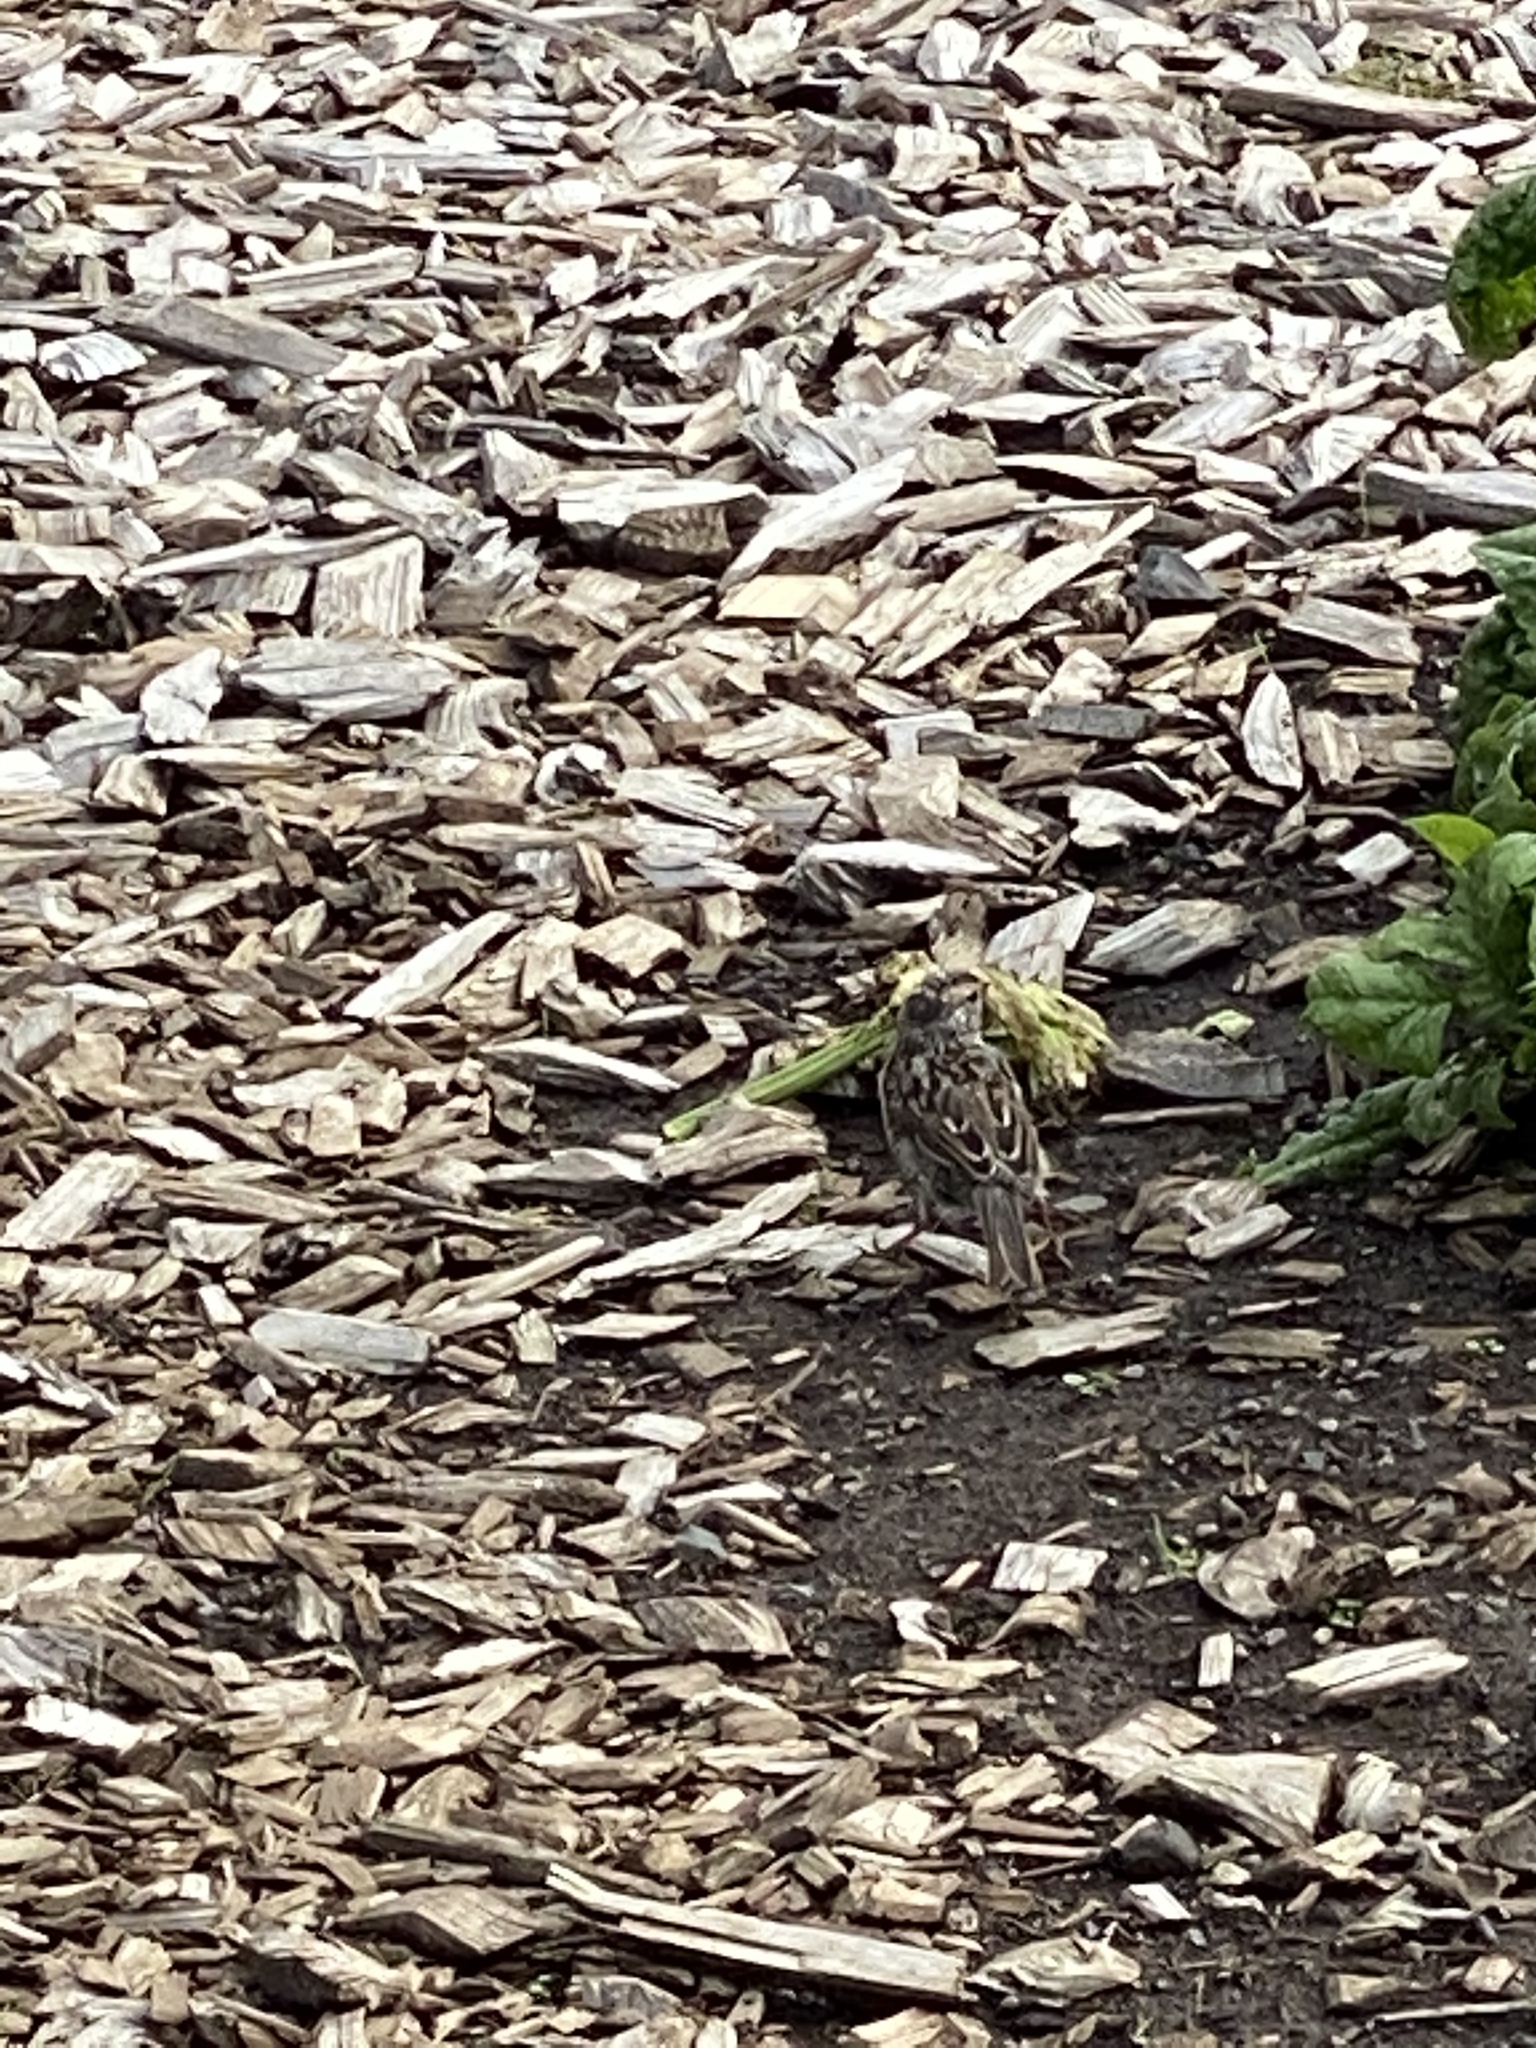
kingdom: Animalia
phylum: Chordata
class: Aves
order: Passeriformes
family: Passerellidae
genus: Zonotrichia
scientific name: Zonotrichia leucophrys
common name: White-crowned sparrow
